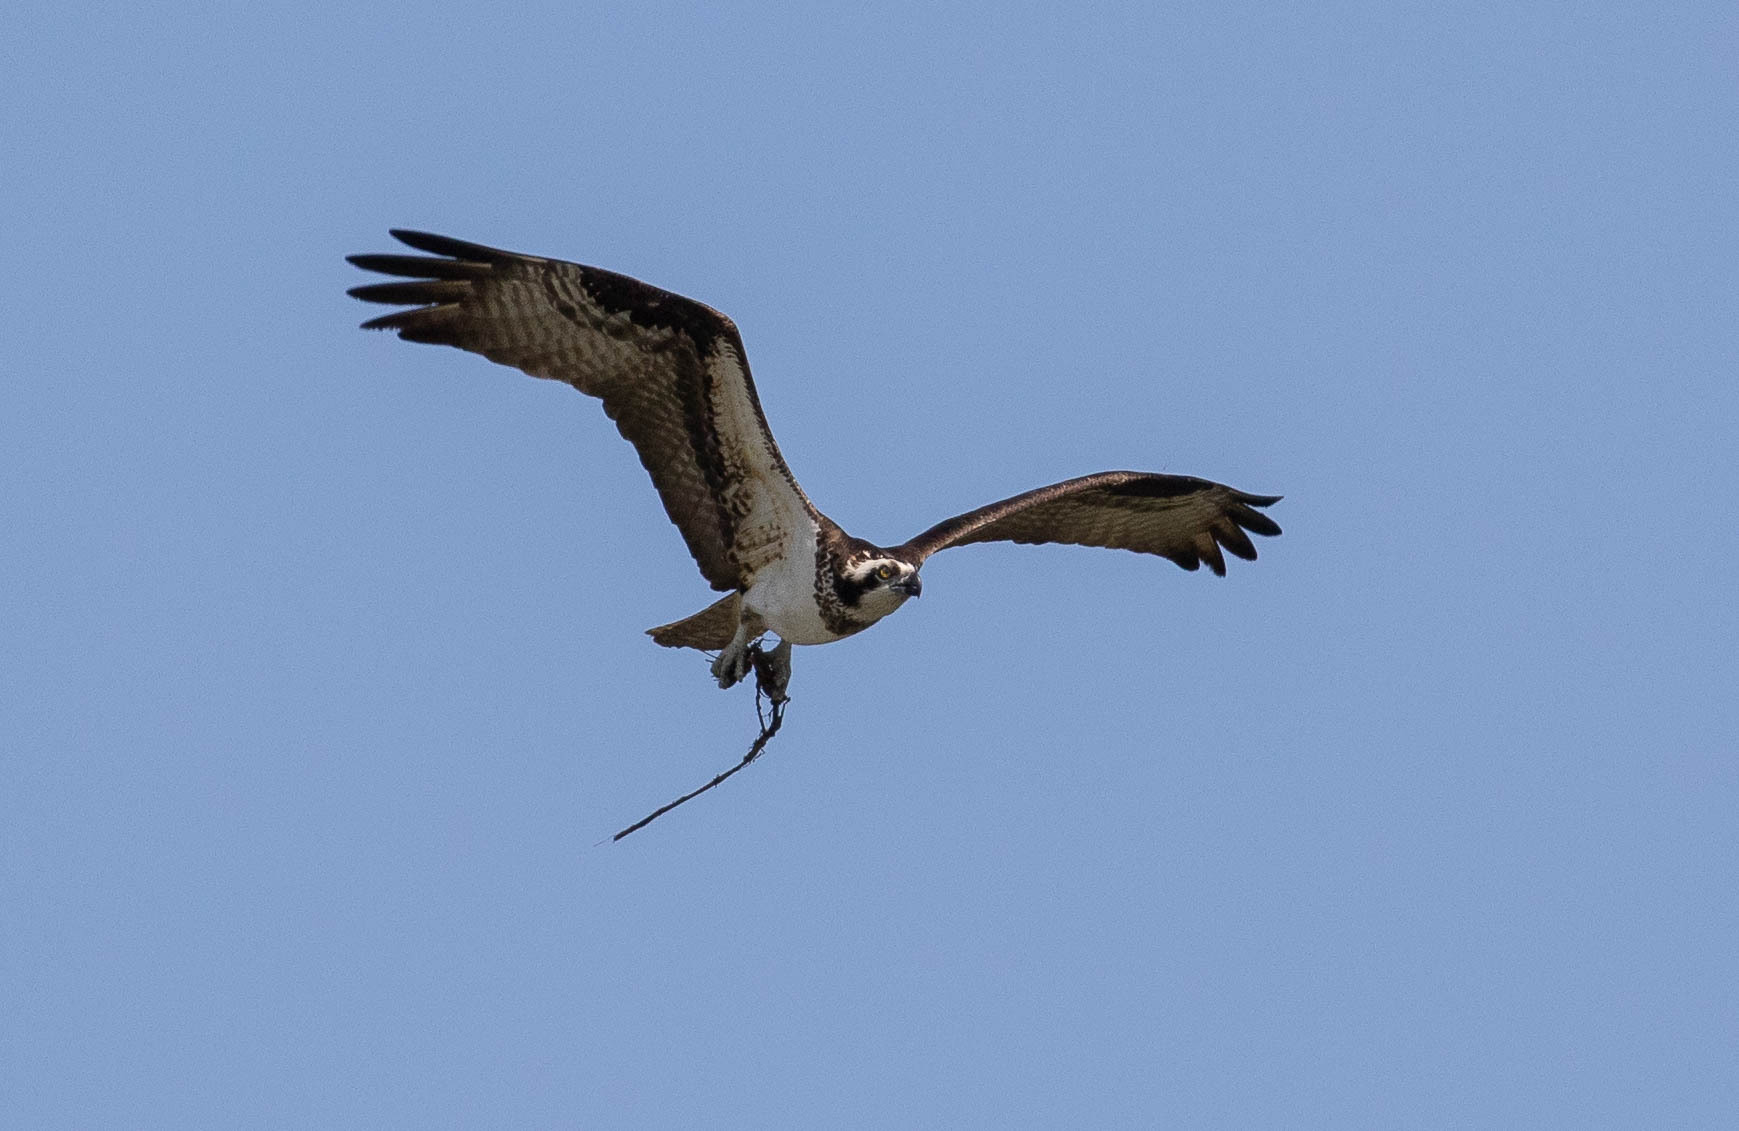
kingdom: Animalia
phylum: Chordata
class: Aves
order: Accipitriformes
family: Pandionidae
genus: Pandion
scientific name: Pandion haliaetus
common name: Osprey
